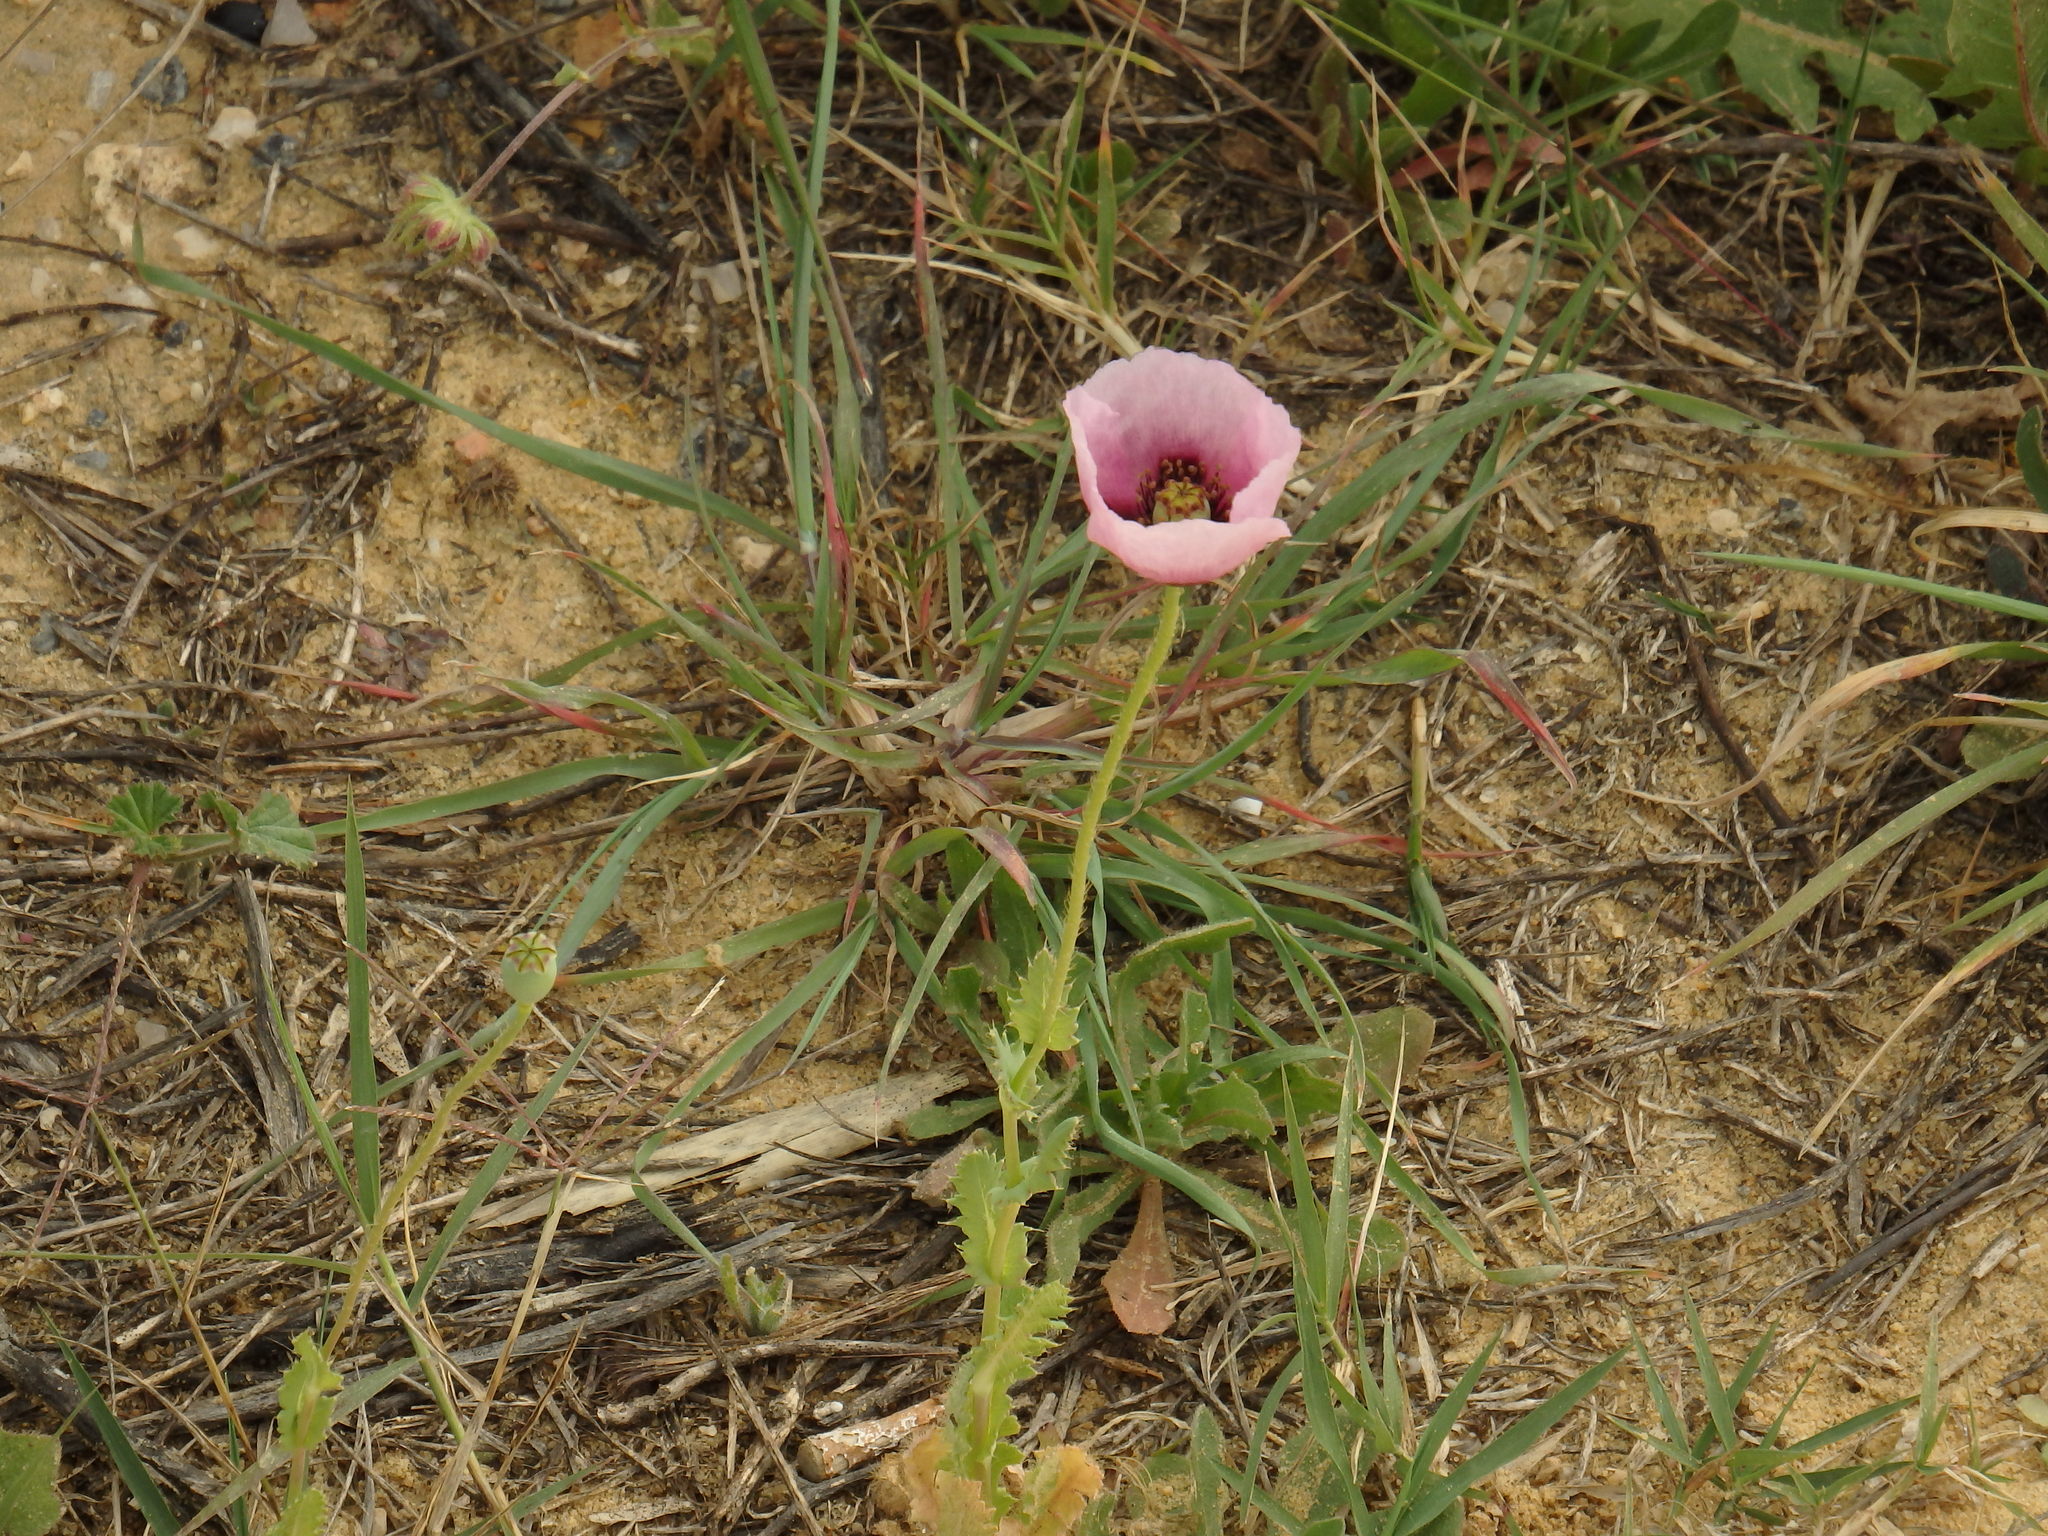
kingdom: Plantae
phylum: Tracheophyta
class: Magnoliopsida
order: Ranunculales
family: Papaveraceae
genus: Papaver
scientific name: Papaver setigerum
